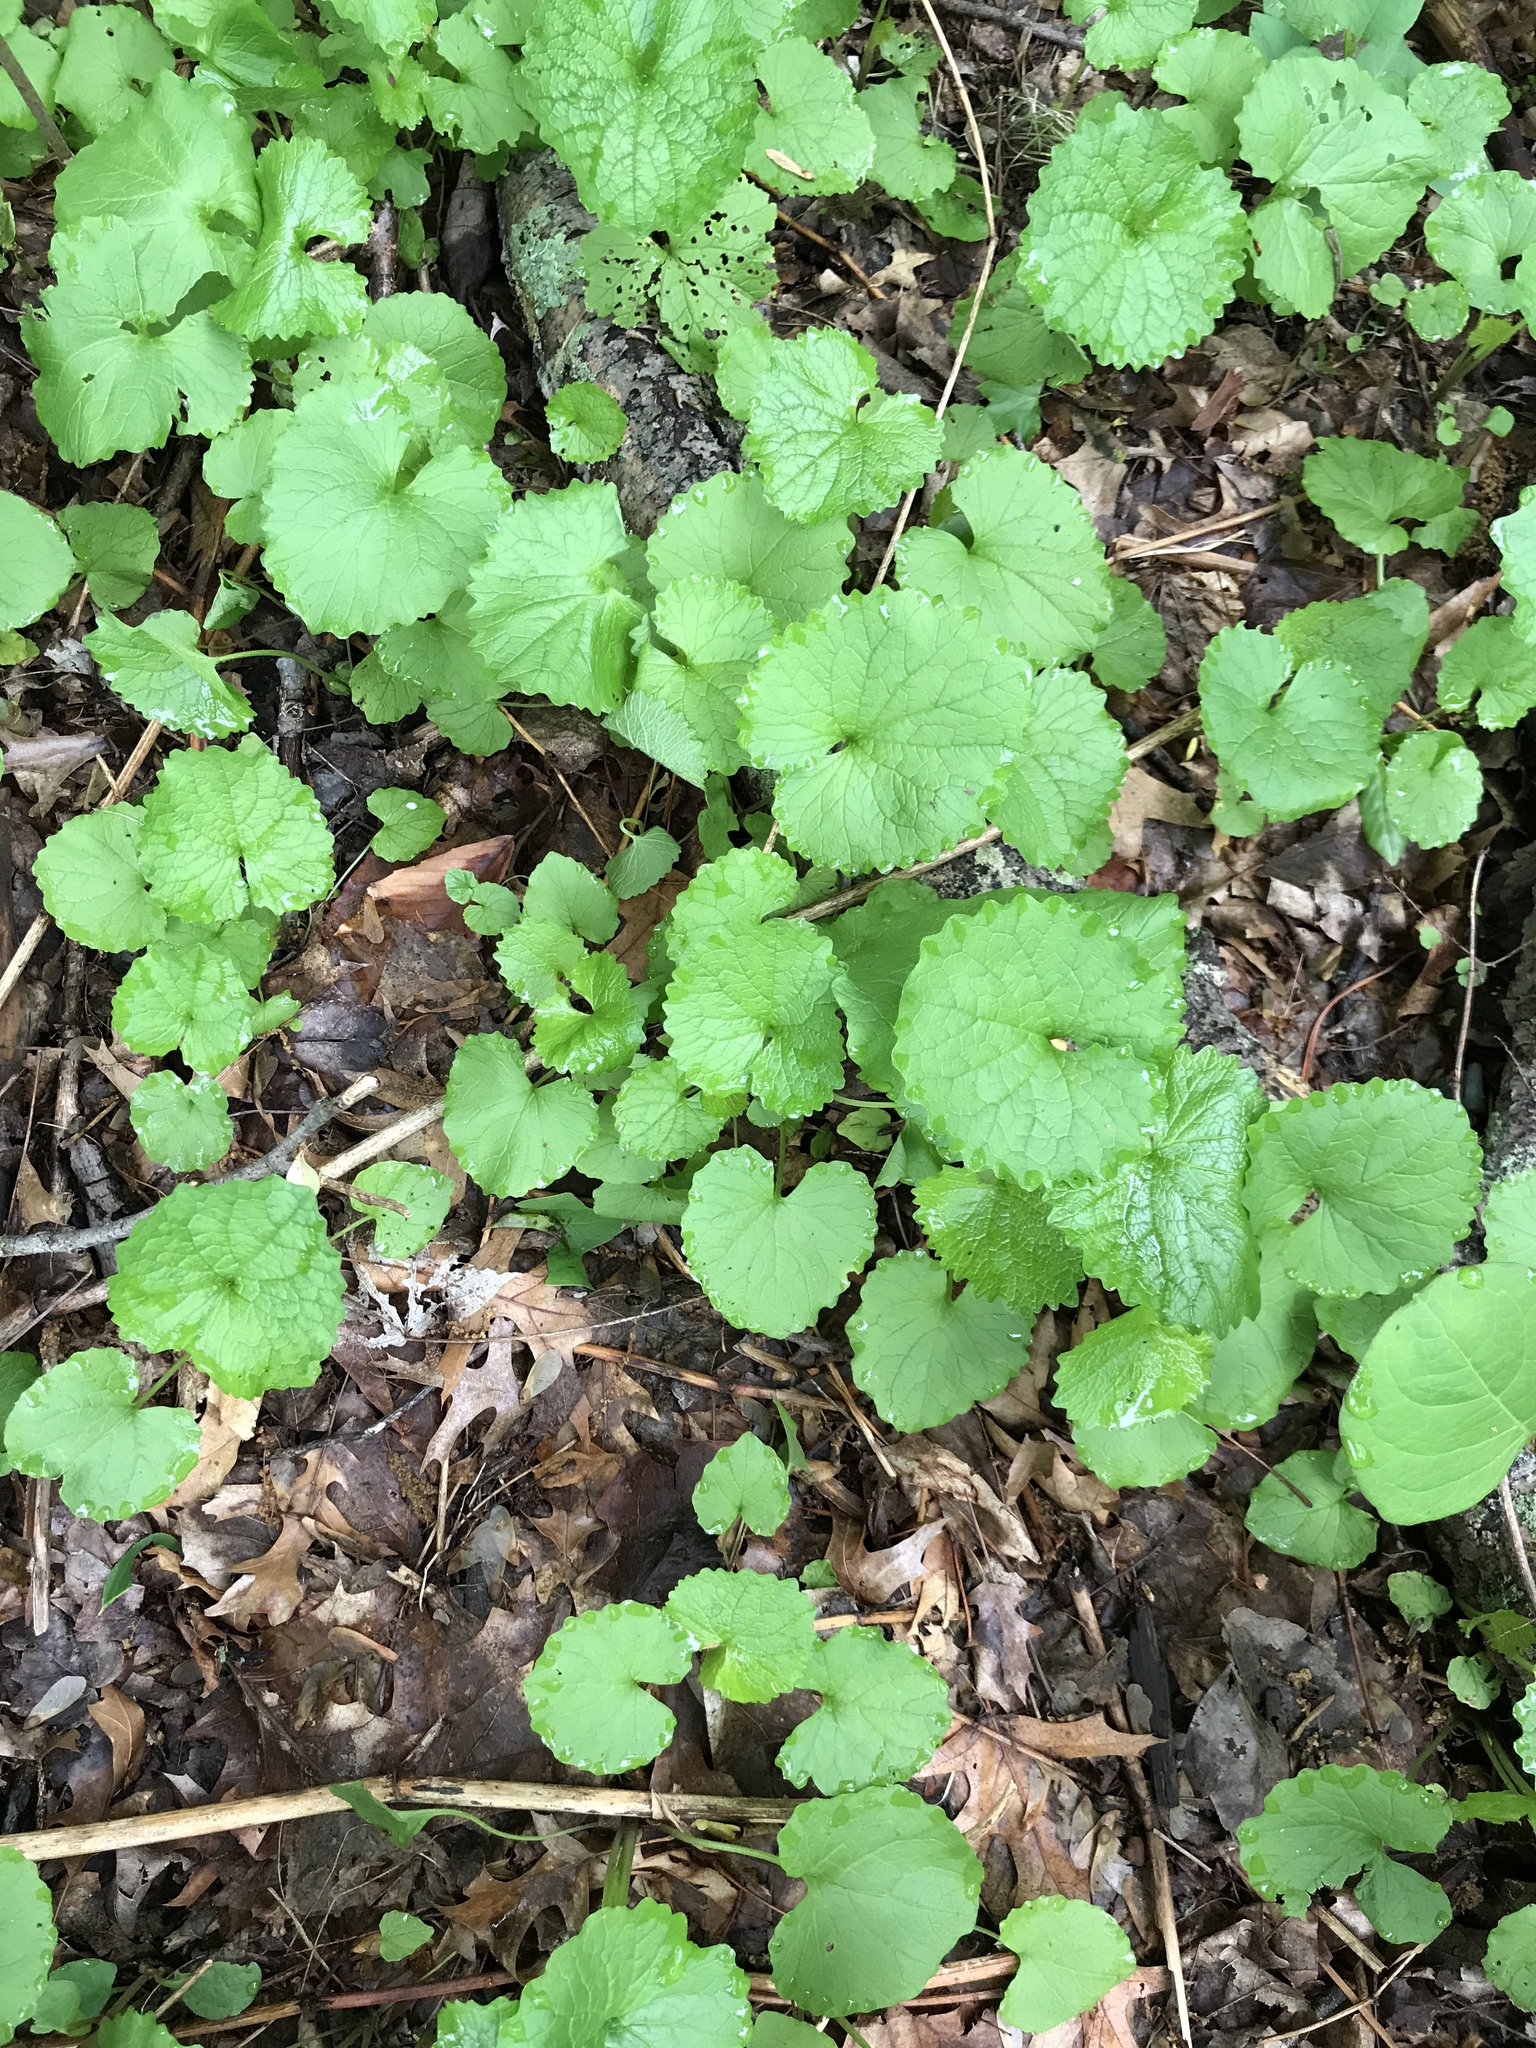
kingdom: Plantae
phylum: Tracheophyta
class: Magnoliopsida
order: Brassicales
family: Brassicaceae
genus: Alliaria
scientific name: Alliaria petiolata
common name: Garlic mustard
